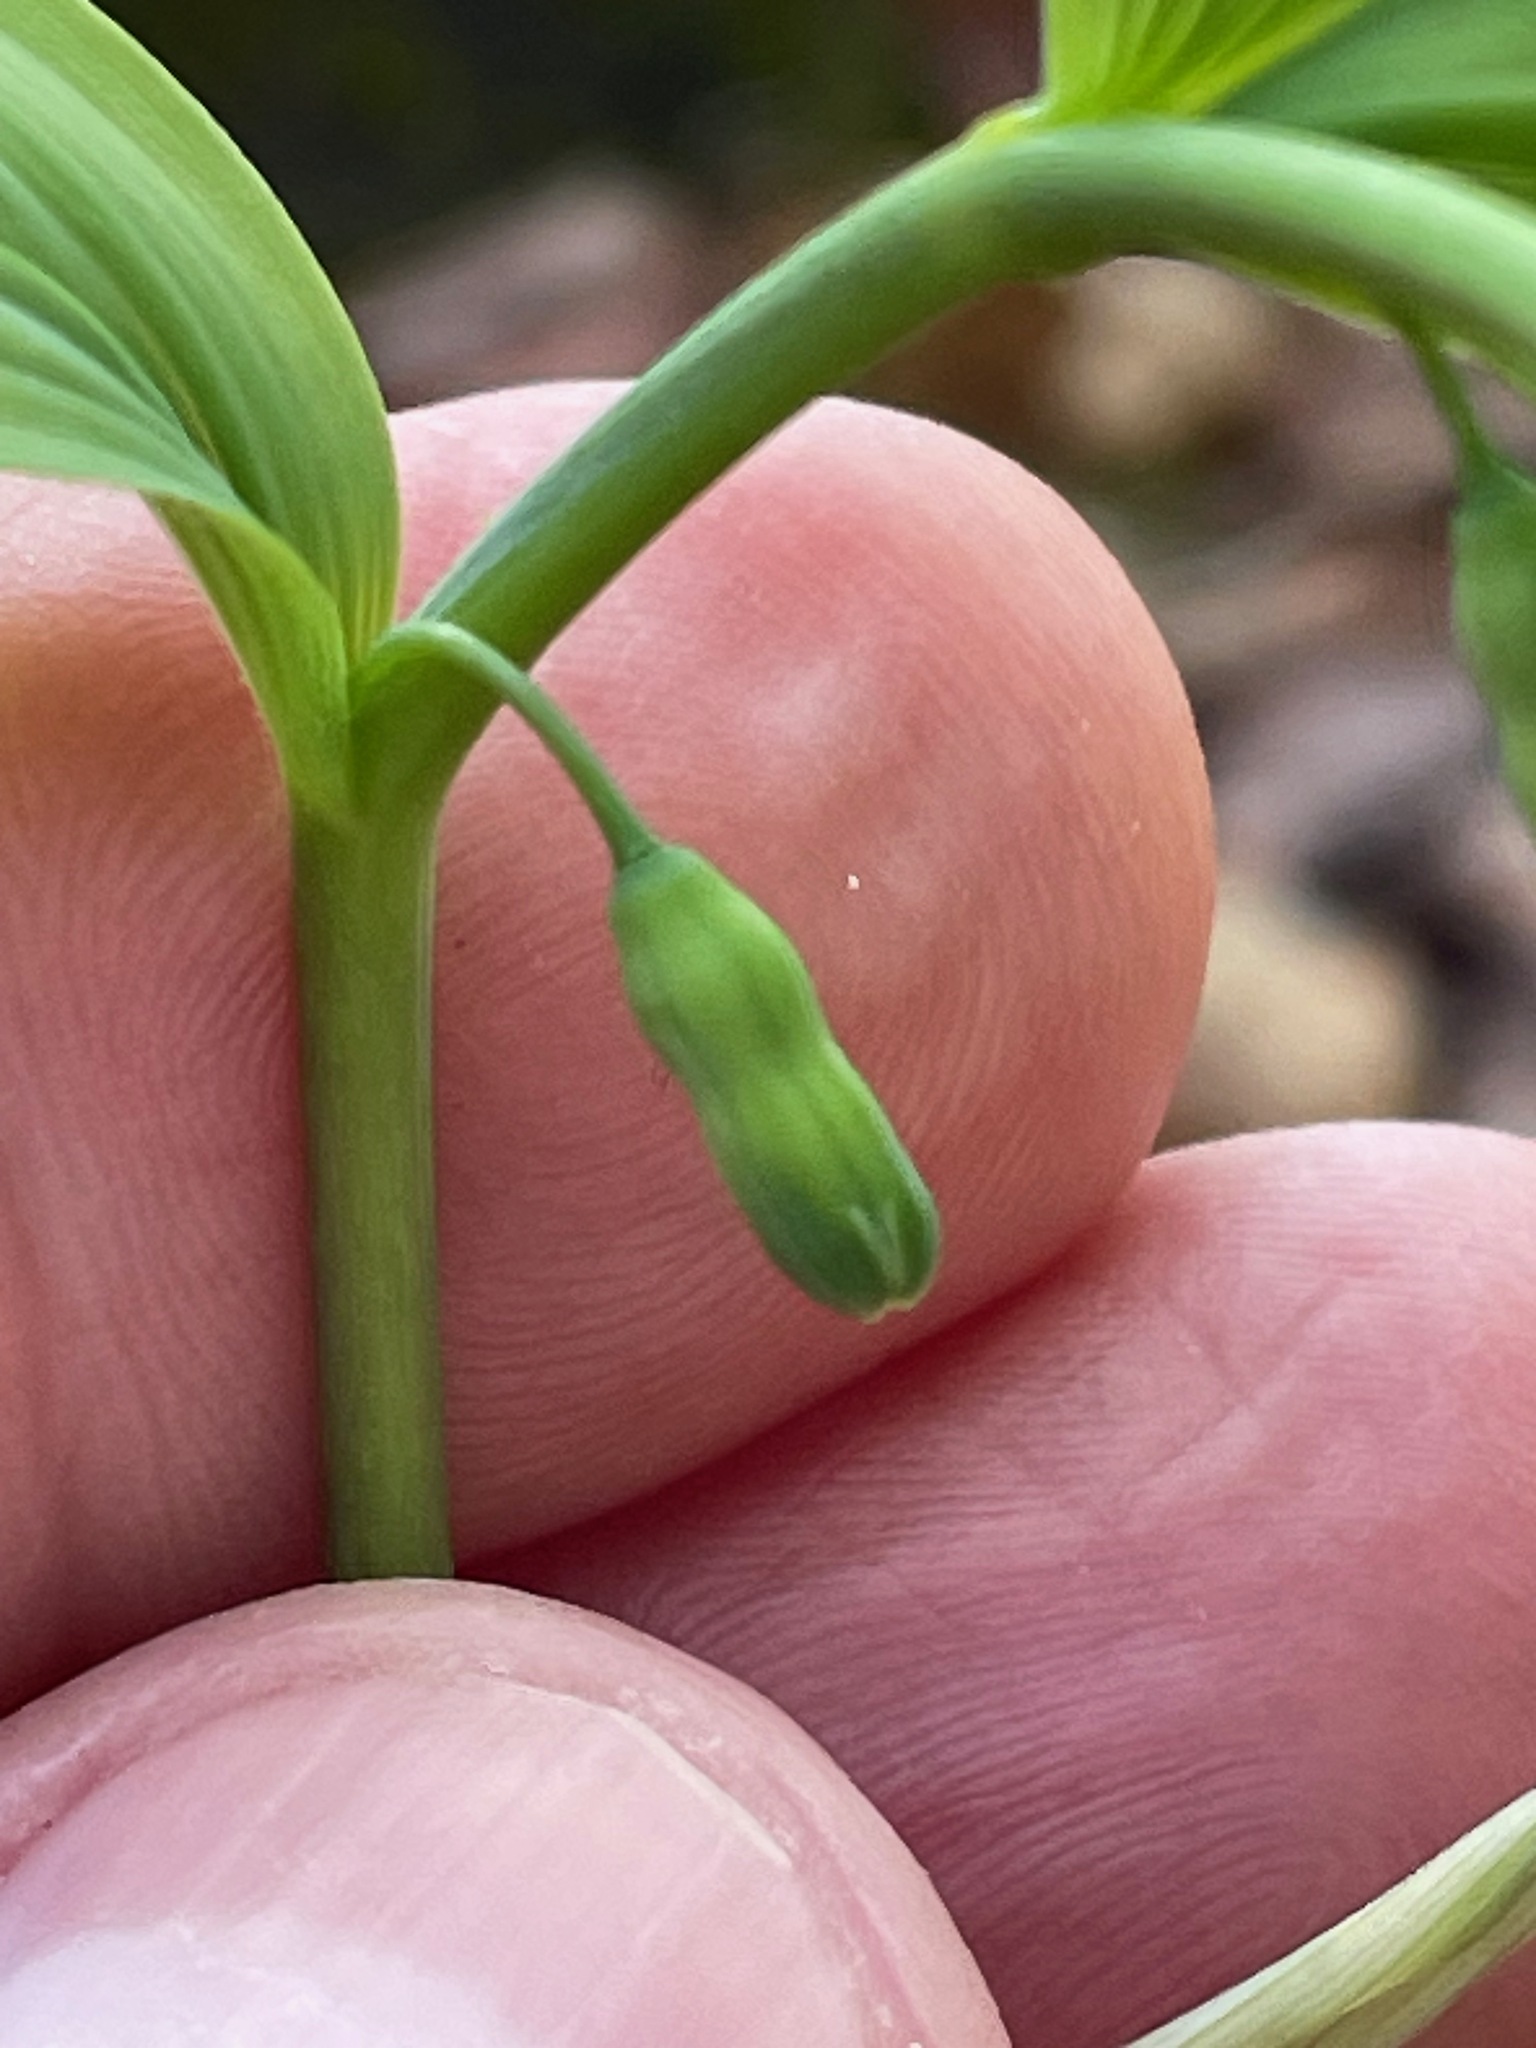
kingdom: Plantae
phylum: Tracheophyta
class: Liliopsida
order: Asparagales
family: Asparagaceae
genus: Polygonatum
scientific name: Polygonatum pubescens
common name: Downy solomon's seal
